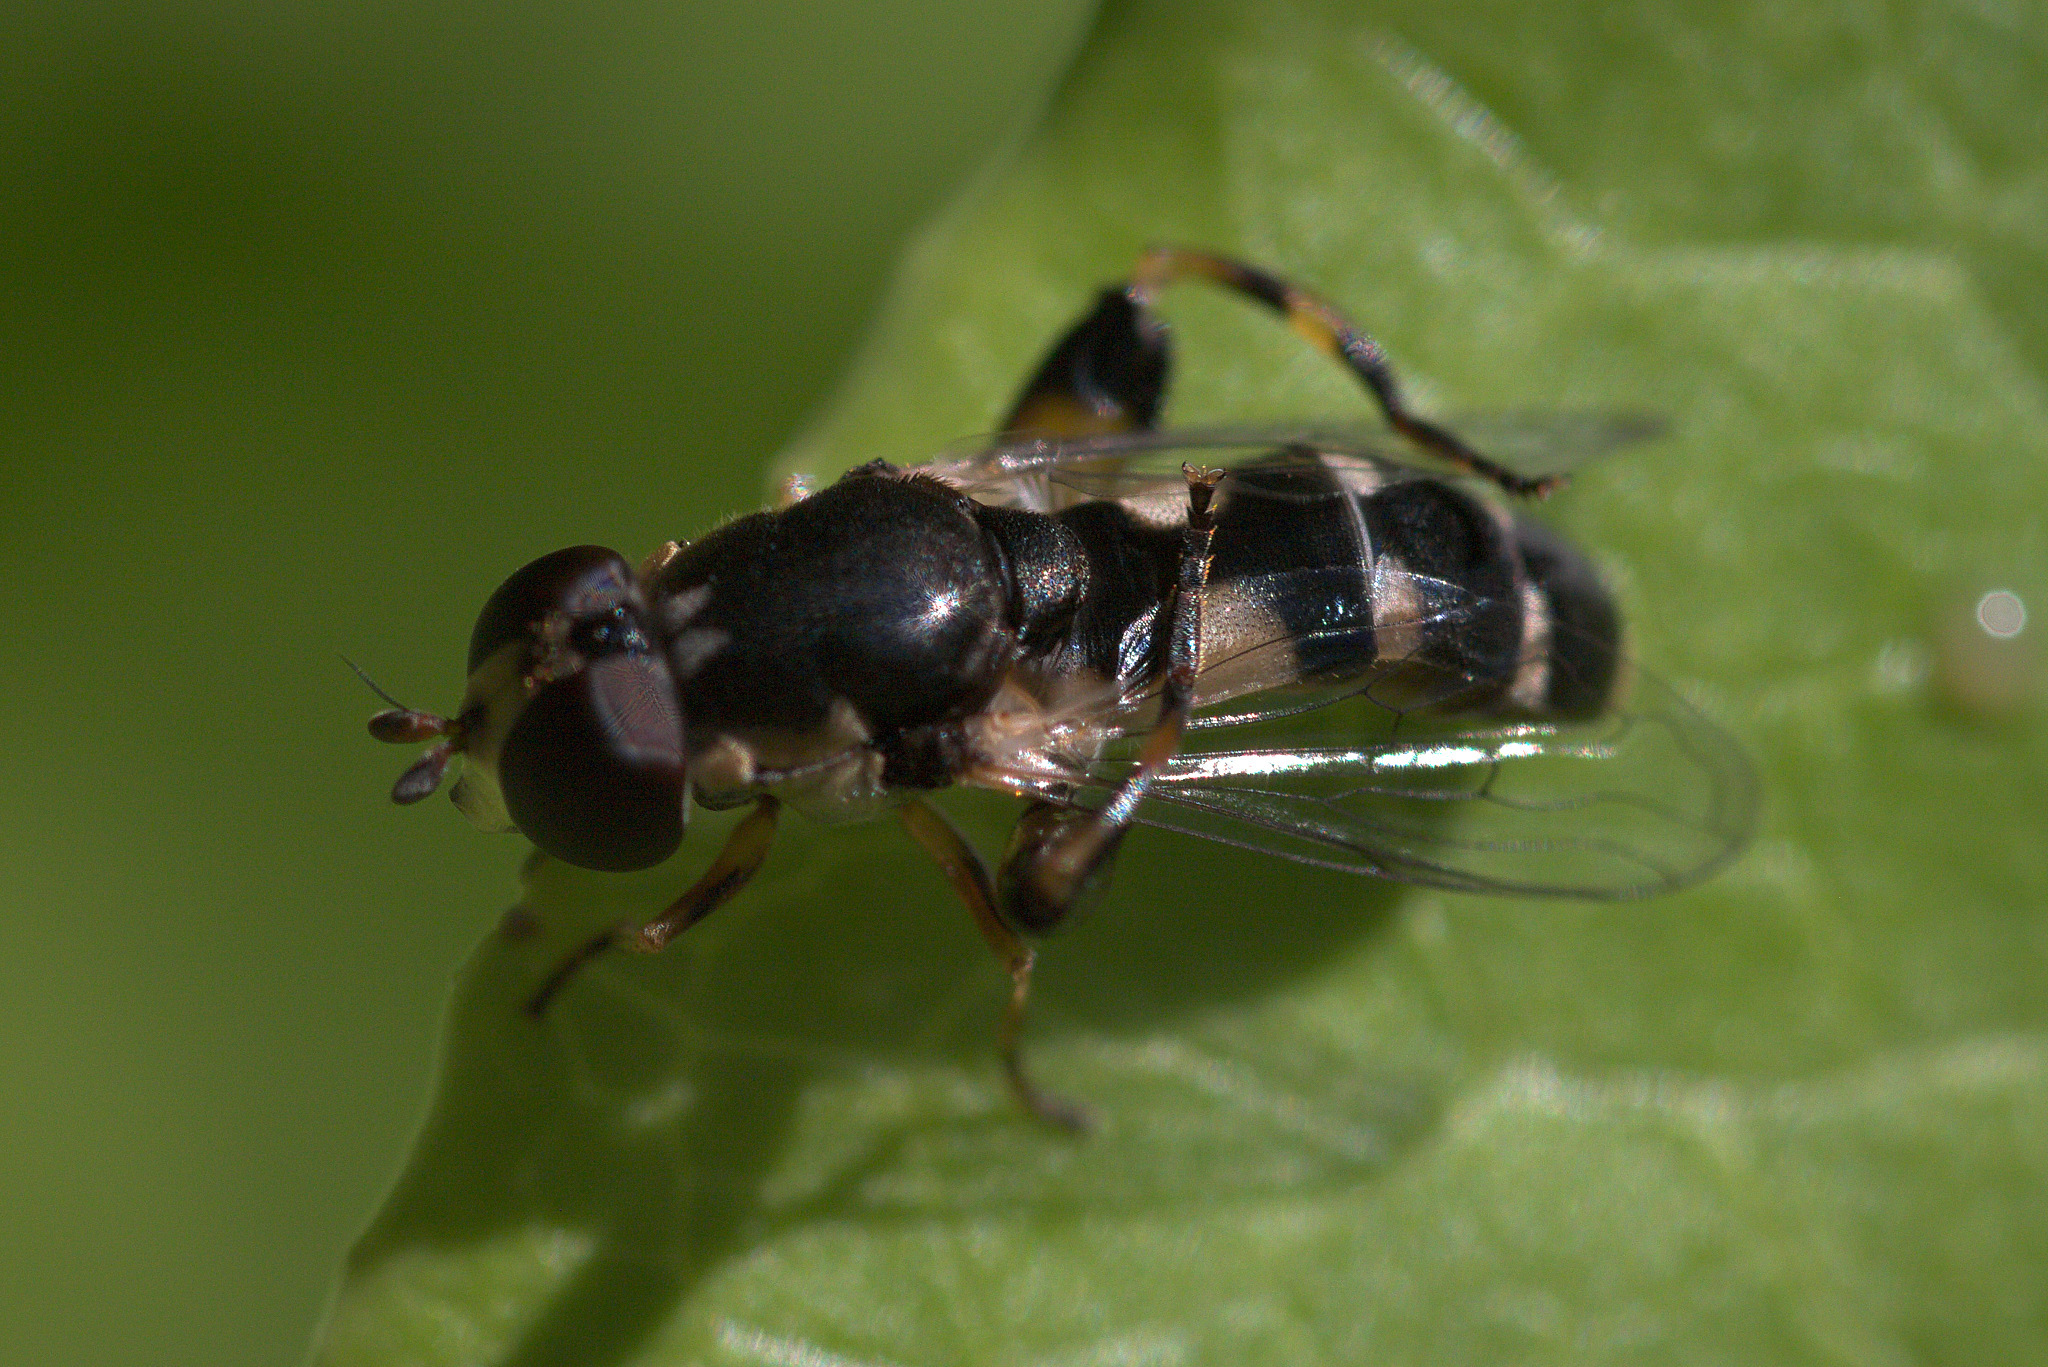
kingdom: Animalia
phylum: Arthropoda
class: Insecta
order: Diptera
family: Syrphidae
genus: Syritta
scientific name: Syritta pipiens
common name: Hover fly
